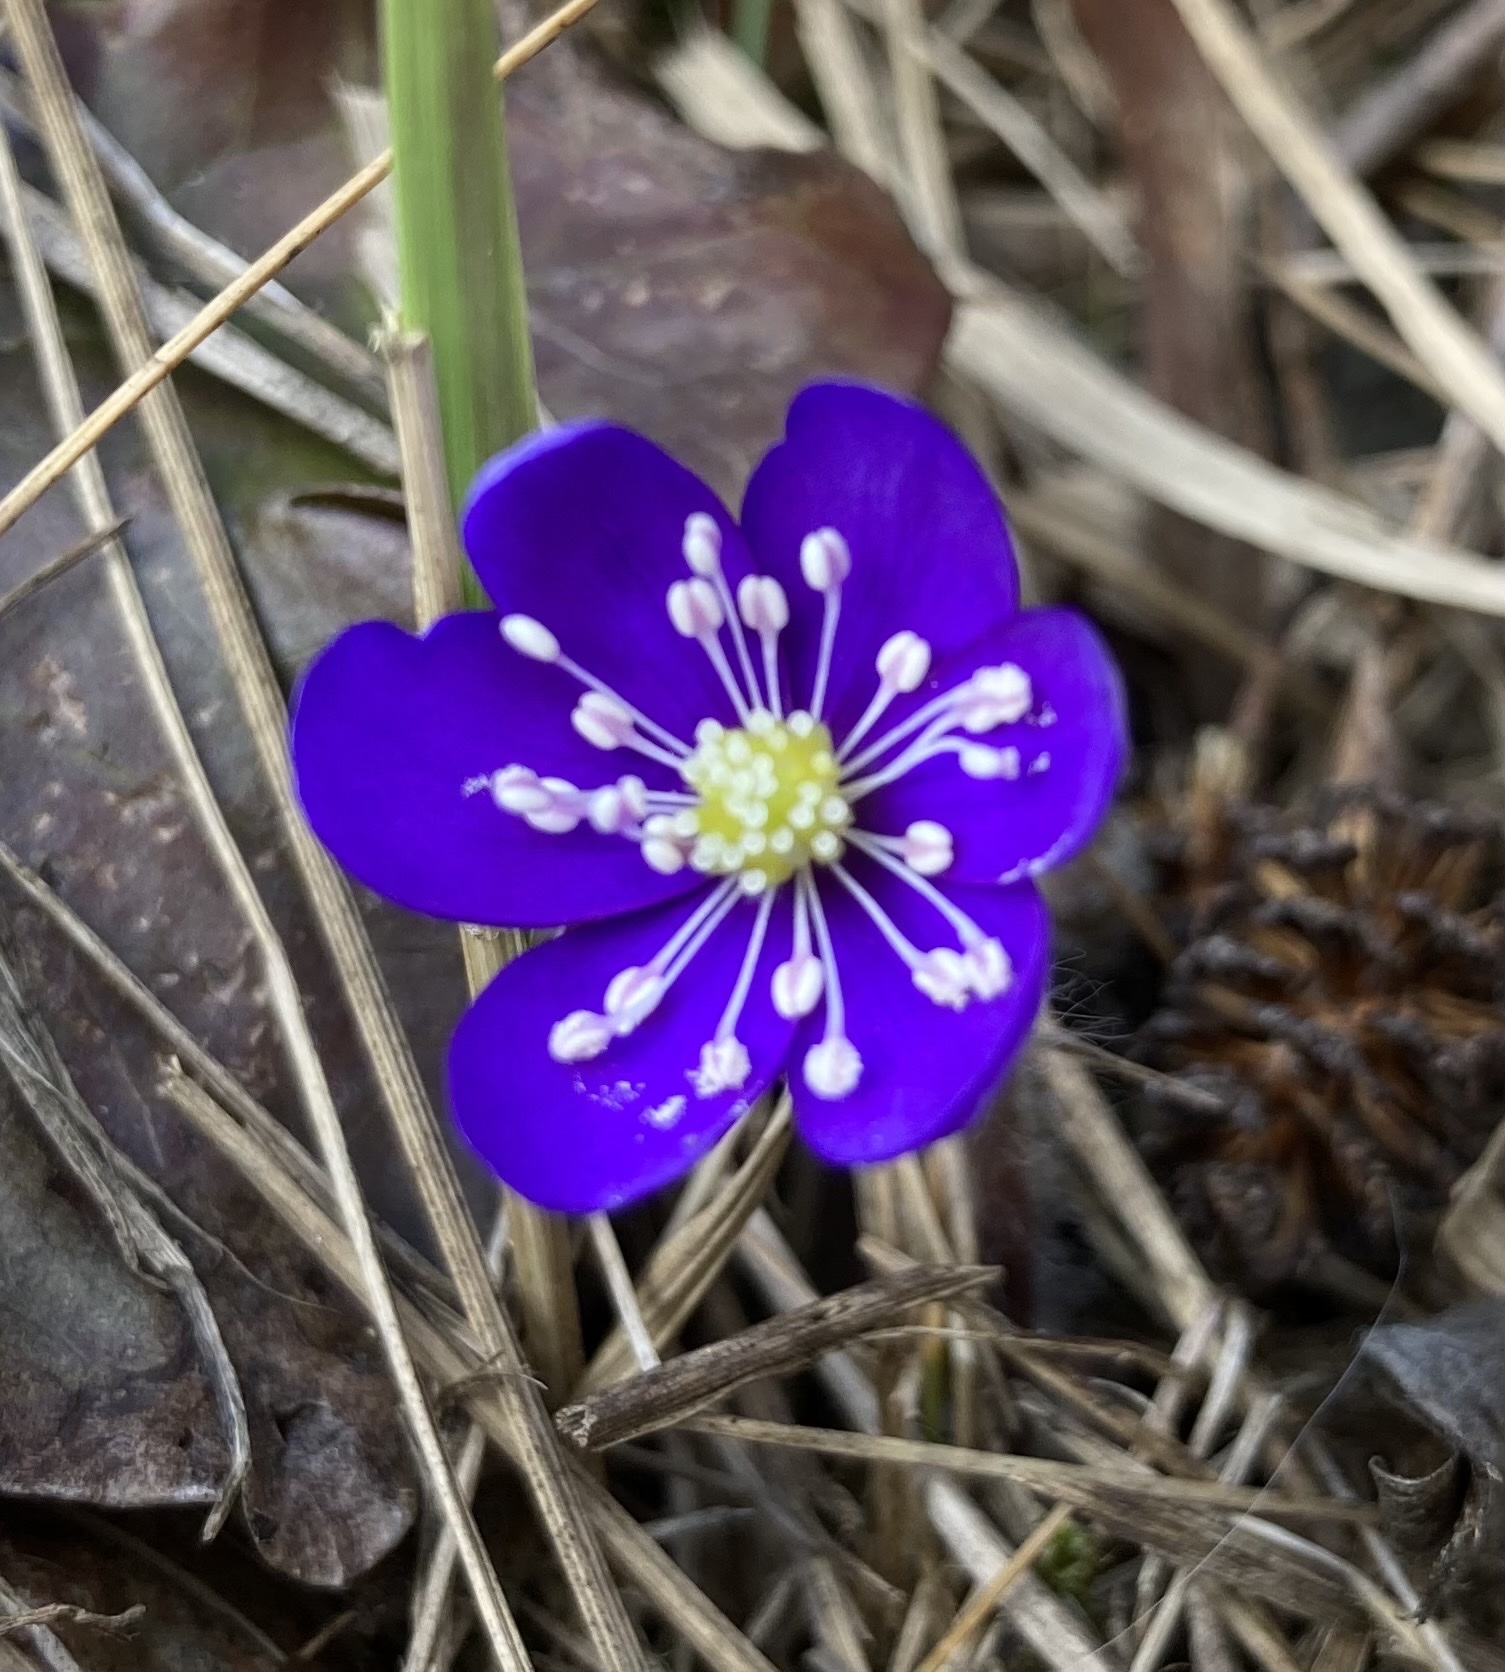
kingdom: Plantae
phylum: Tracheophyta
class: Magnoliopsida
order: Ranunculales
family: Ranunculaceae
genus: Hepatica
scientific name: Hepatica nobilis
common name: Liverleaf
